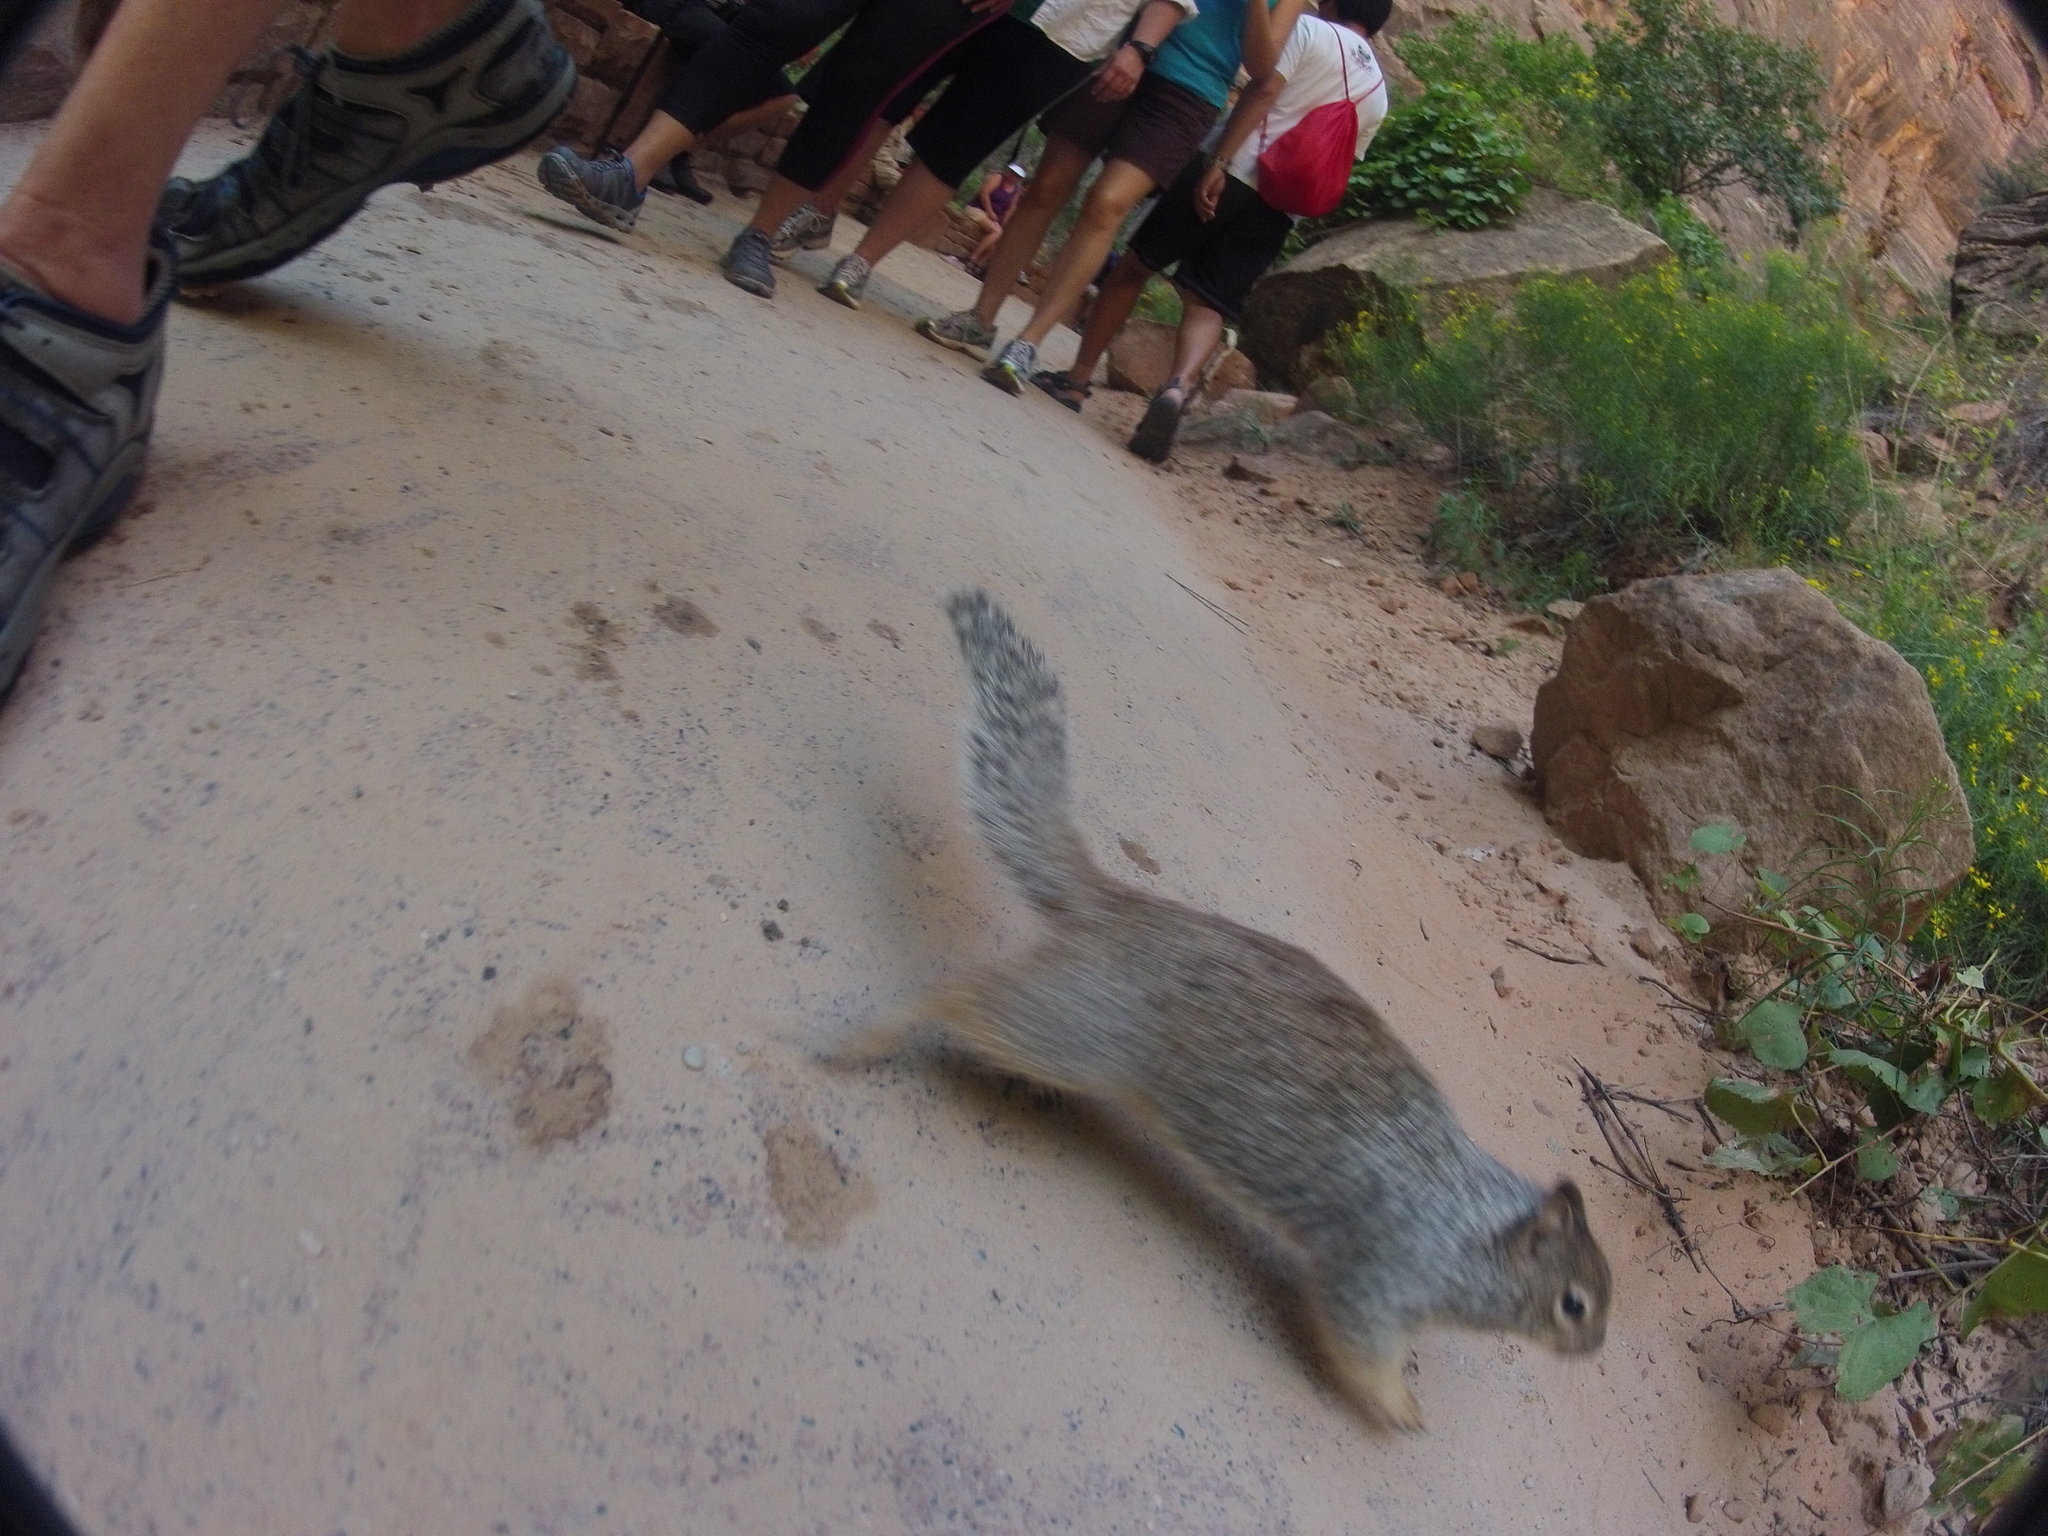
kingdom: Animalia
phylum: Chordata
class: Mammalia
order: Rodentia
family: Sciuridae
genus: Otospermophilus
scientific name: Otospermophilus variegatus
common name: Rock squirrel
